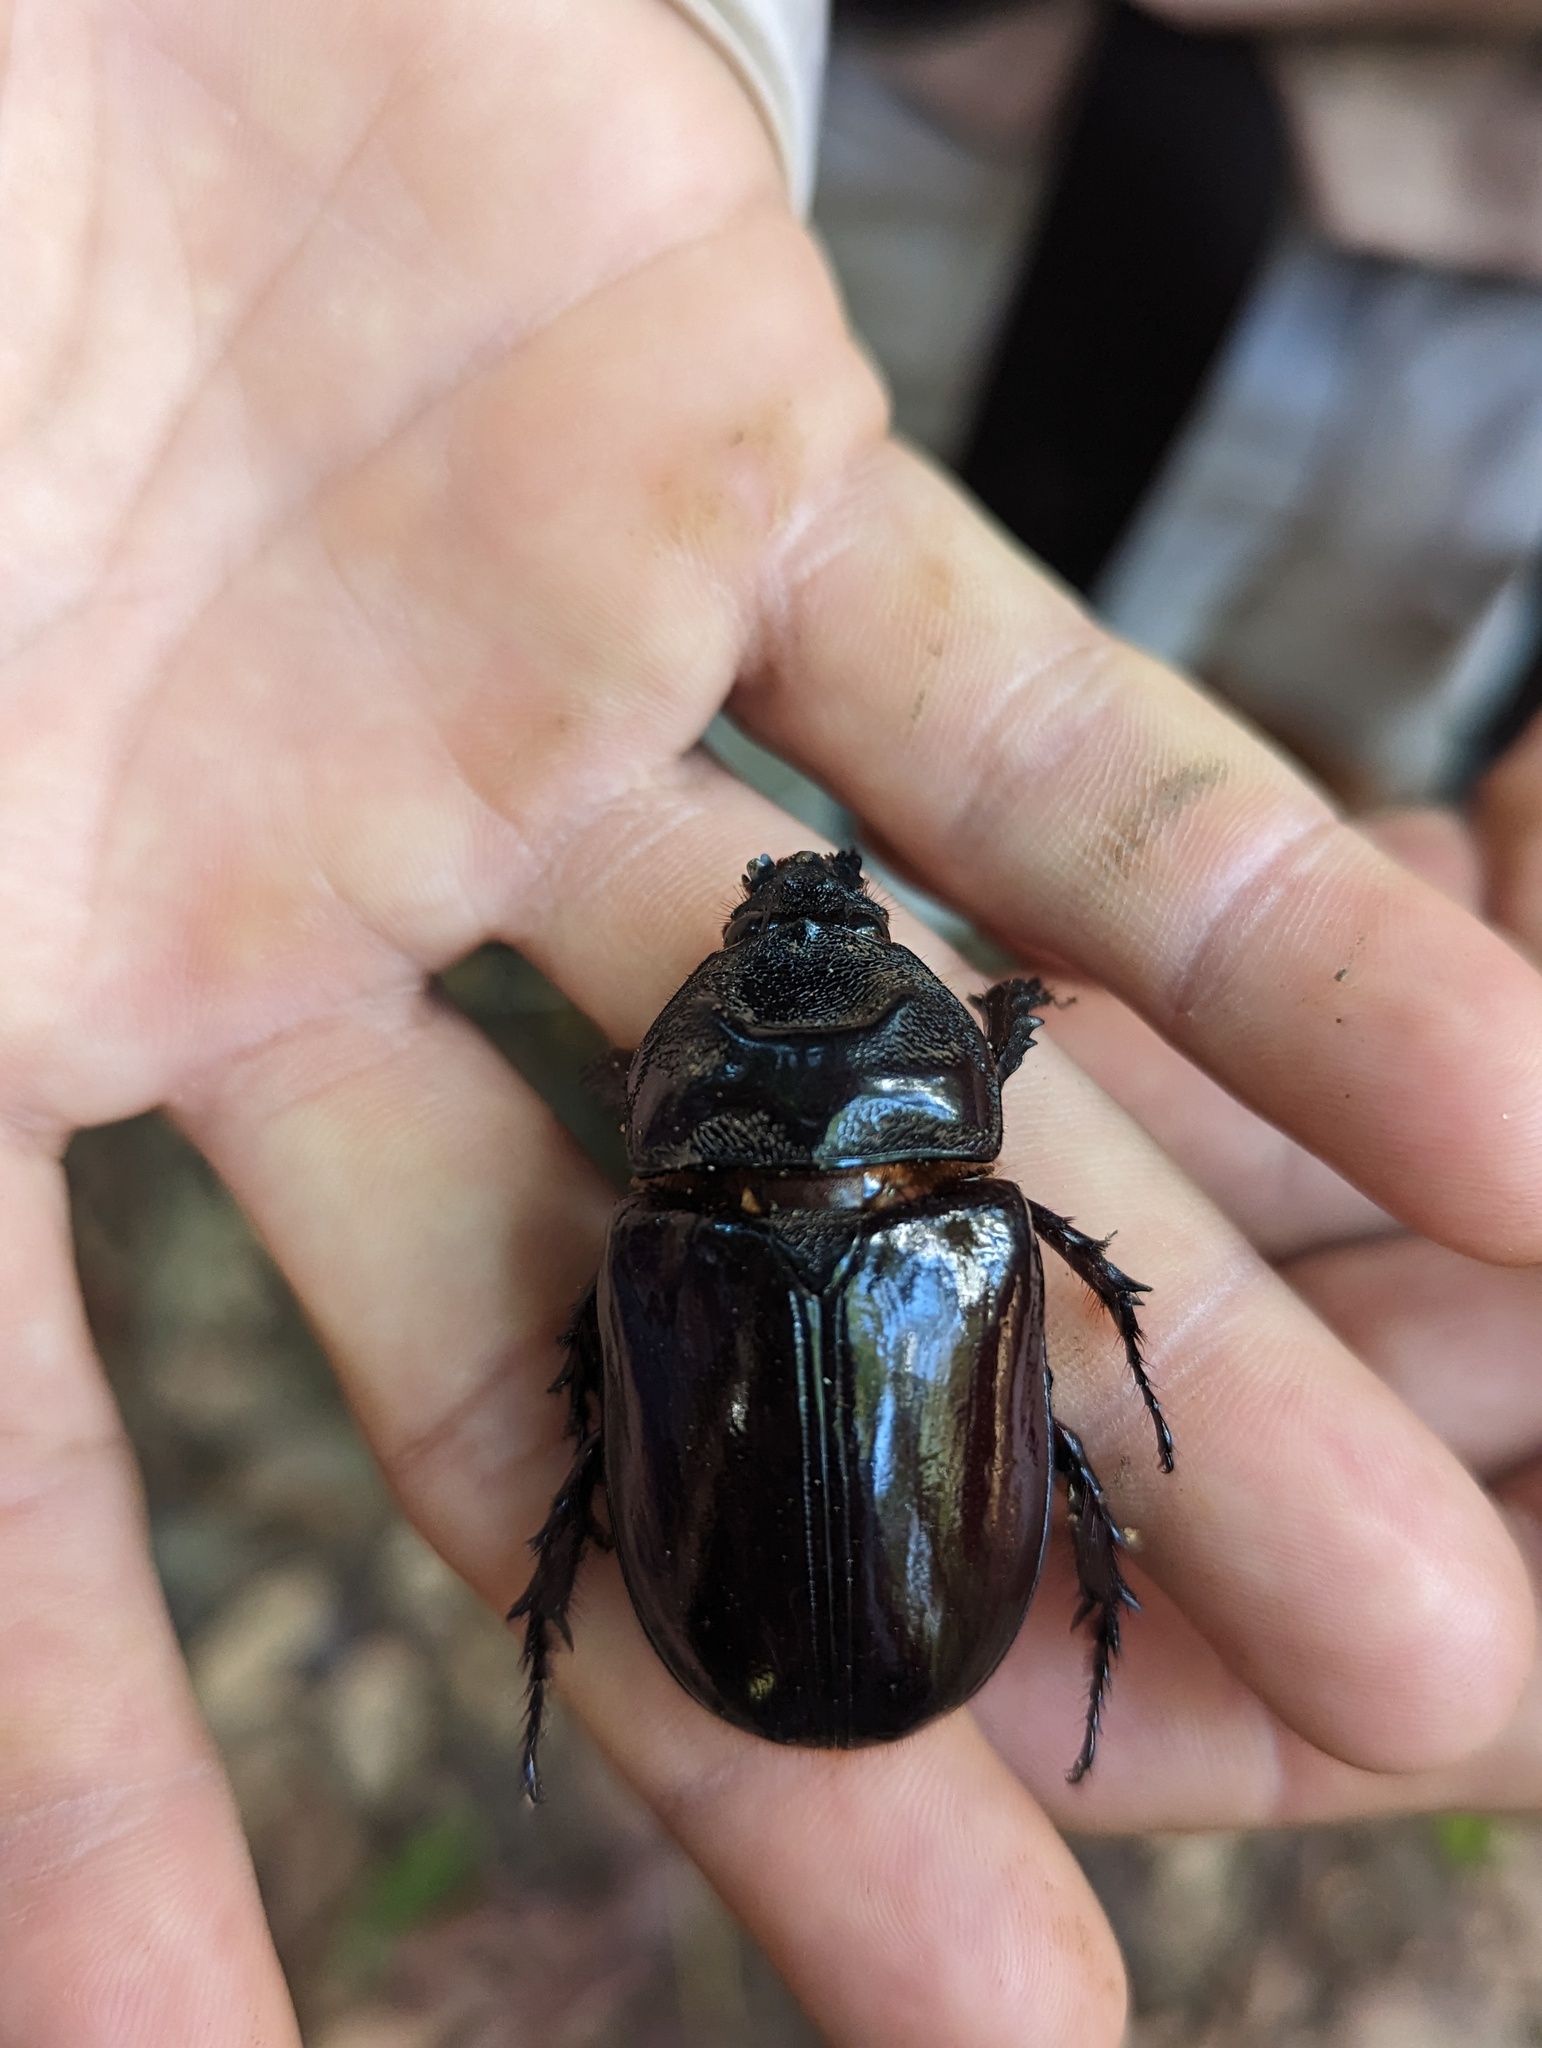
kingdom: Animalia
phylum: Arthropoda
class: Insecta
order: Coleoptera
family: Scarabaeidae
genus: Strategus
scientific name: Strategus aloeus
